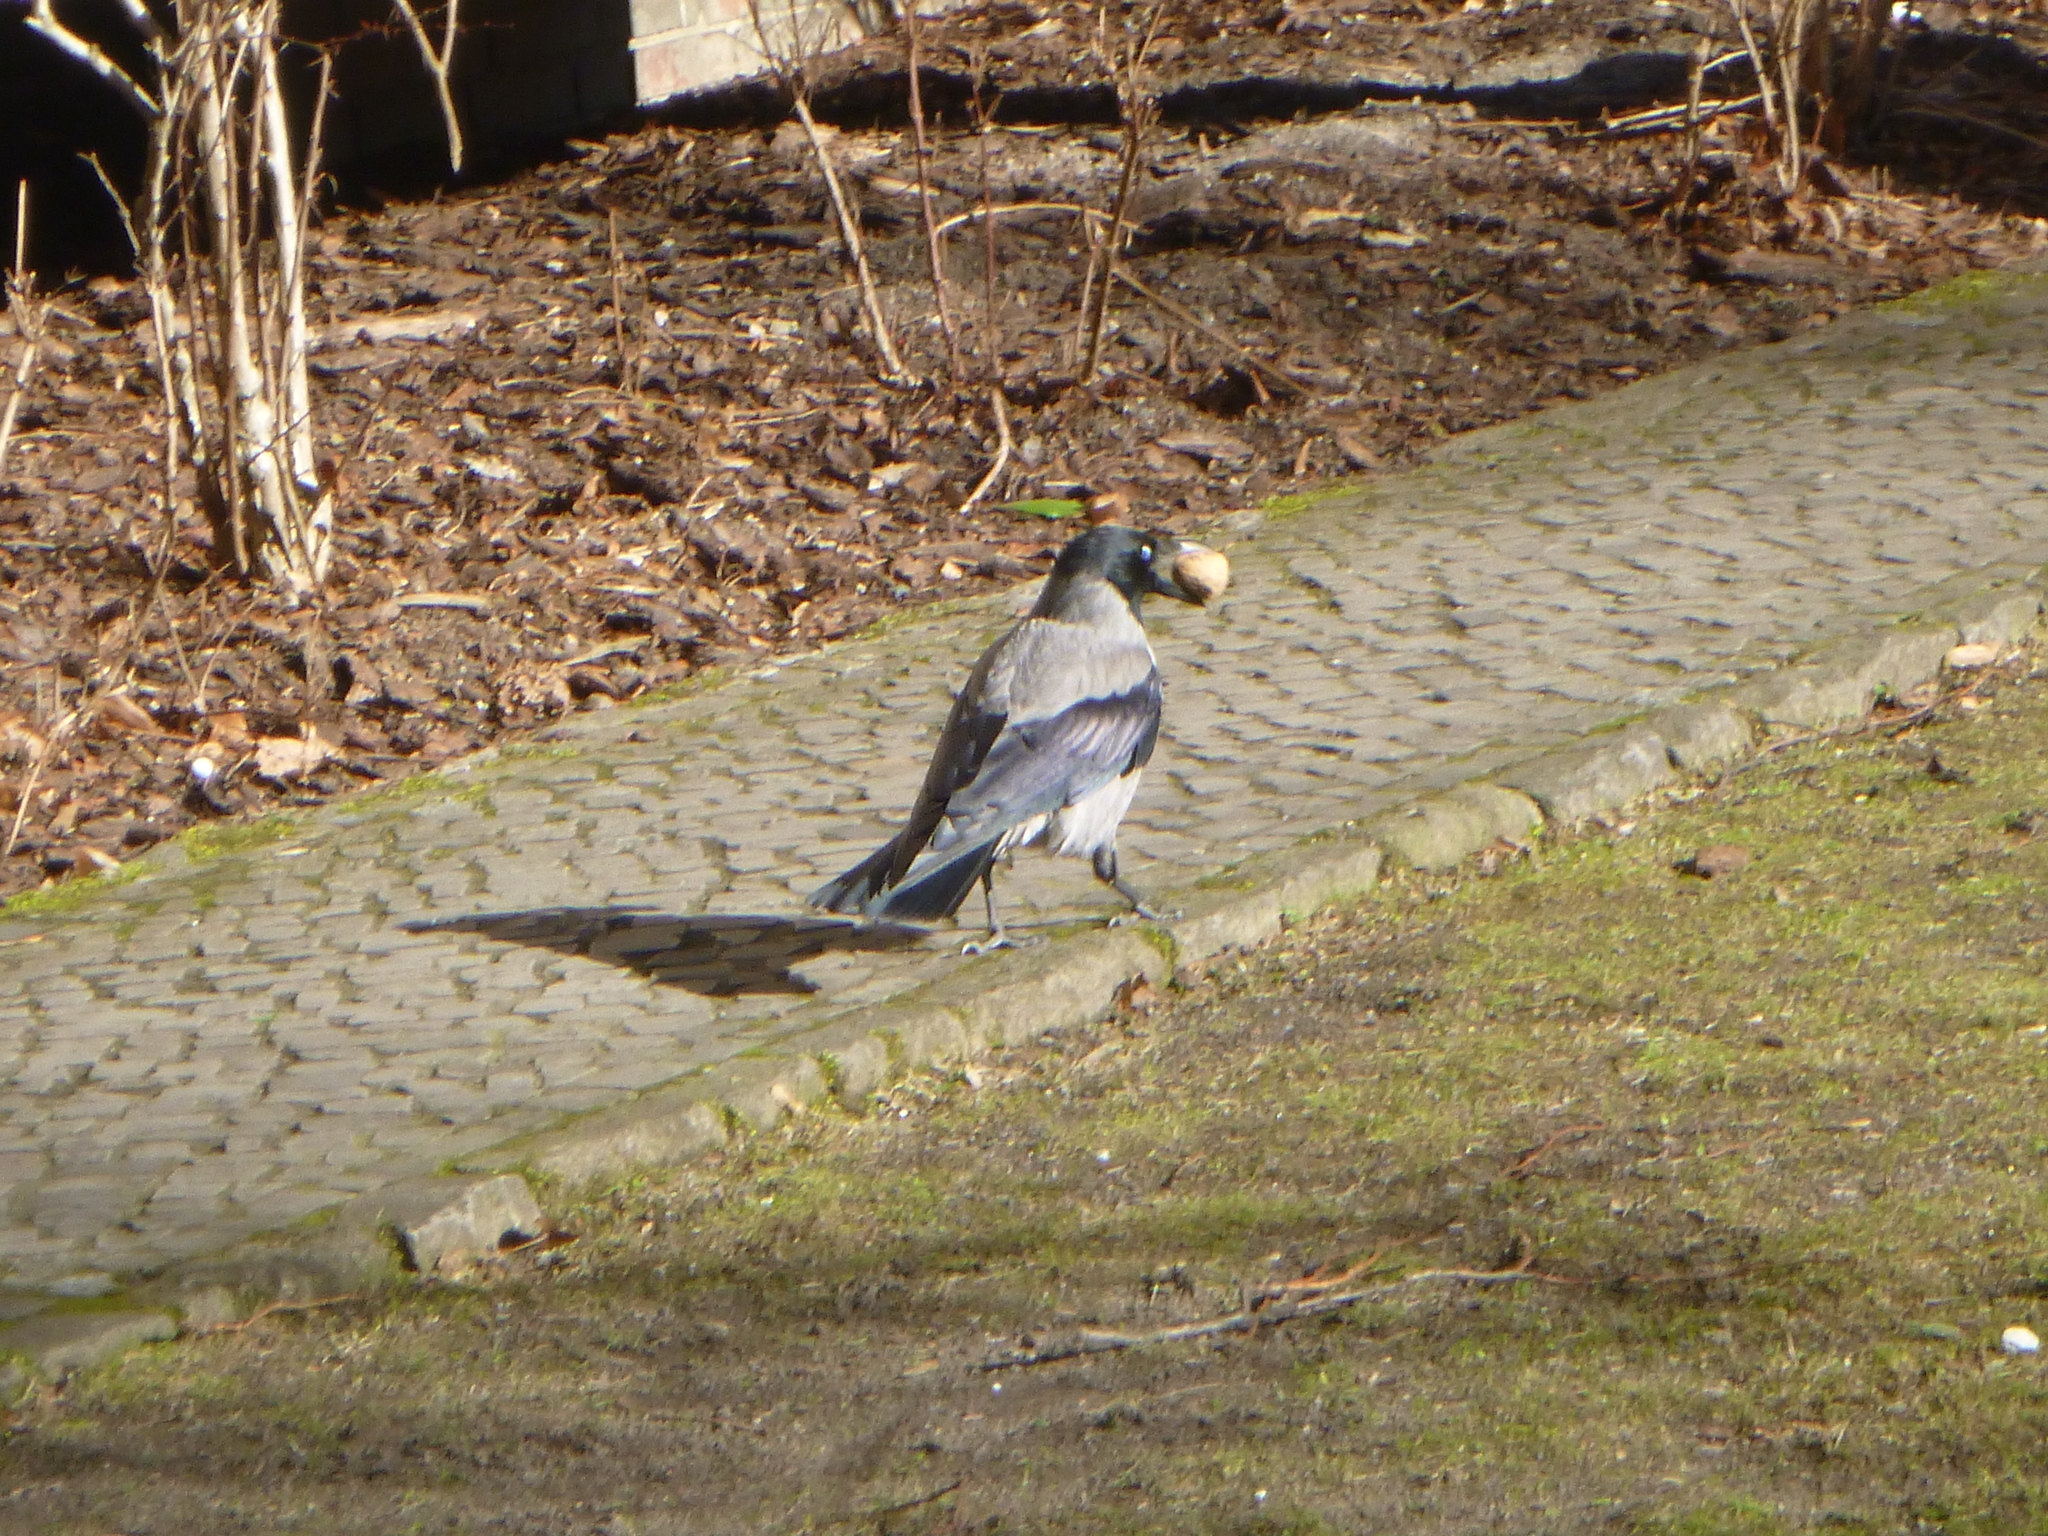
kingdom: Animalia
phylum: Chordata
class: Aves
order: Passeriformes
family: Corvidae
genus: Corvus
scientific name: Corvus cornix
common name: Hooded crow
